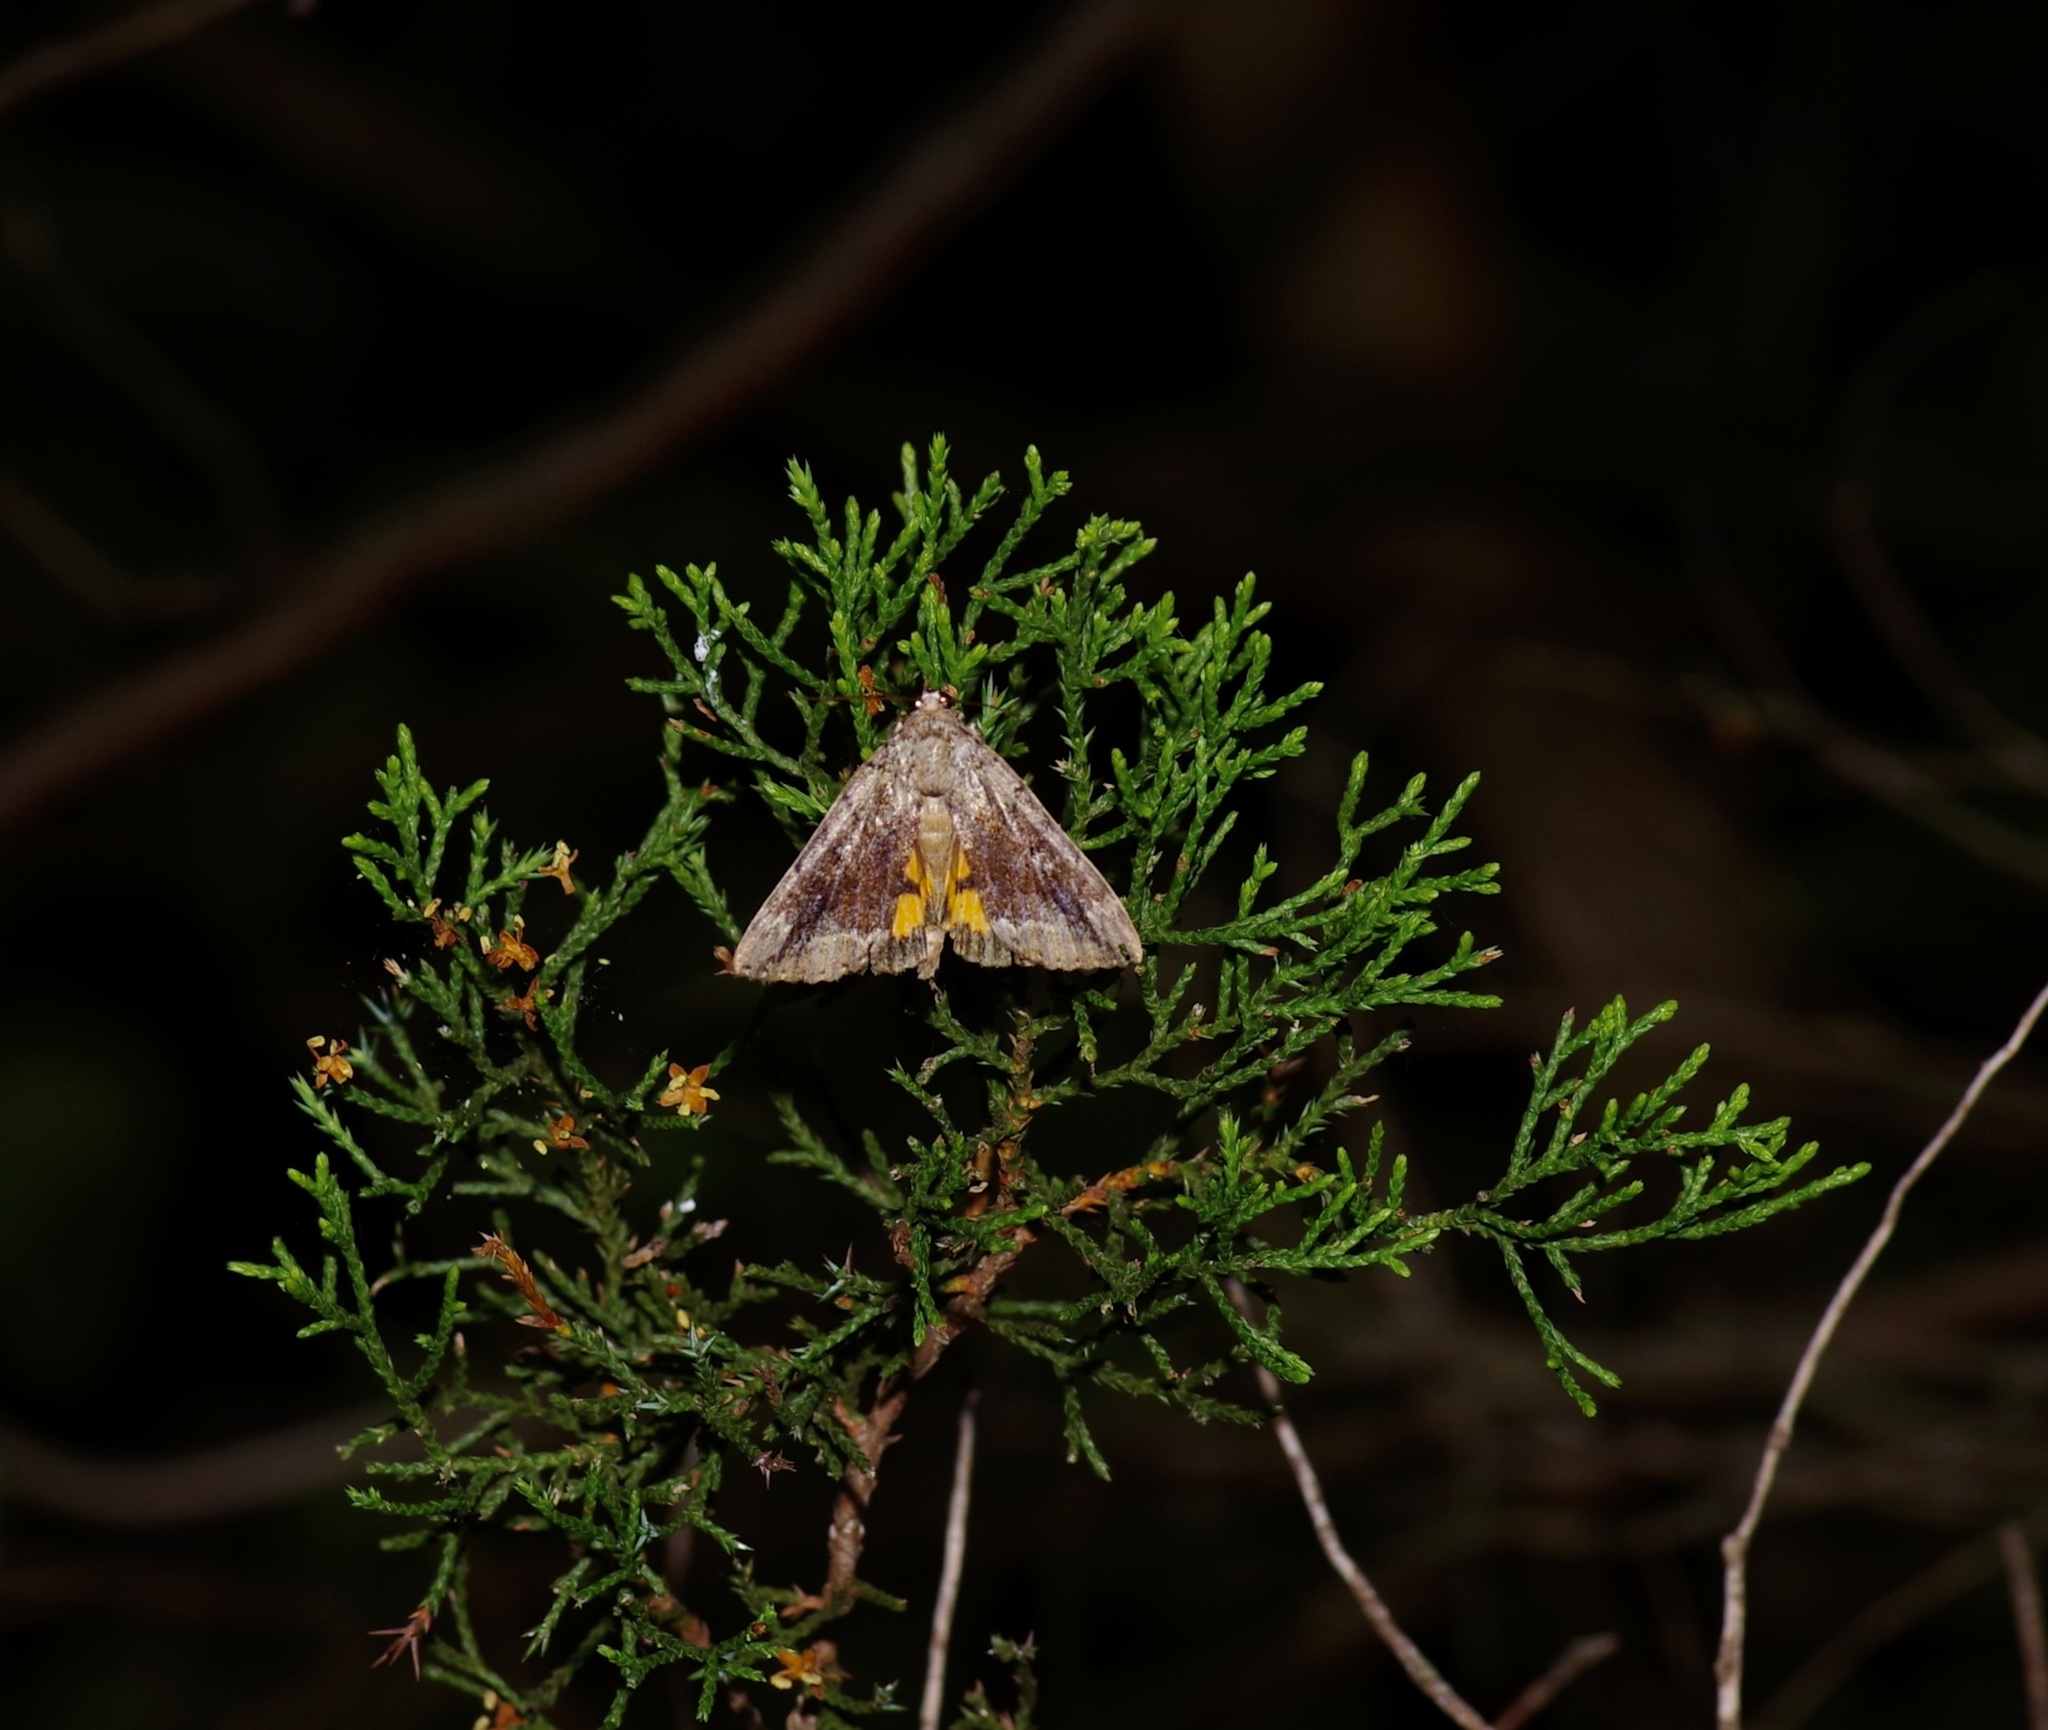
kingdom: Animalia
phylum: Arthropoda
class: Insecta
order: Lepidoptera
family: Erebidae
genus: Catocala
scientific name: Catocala micronympha
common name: Little nymph underwing
